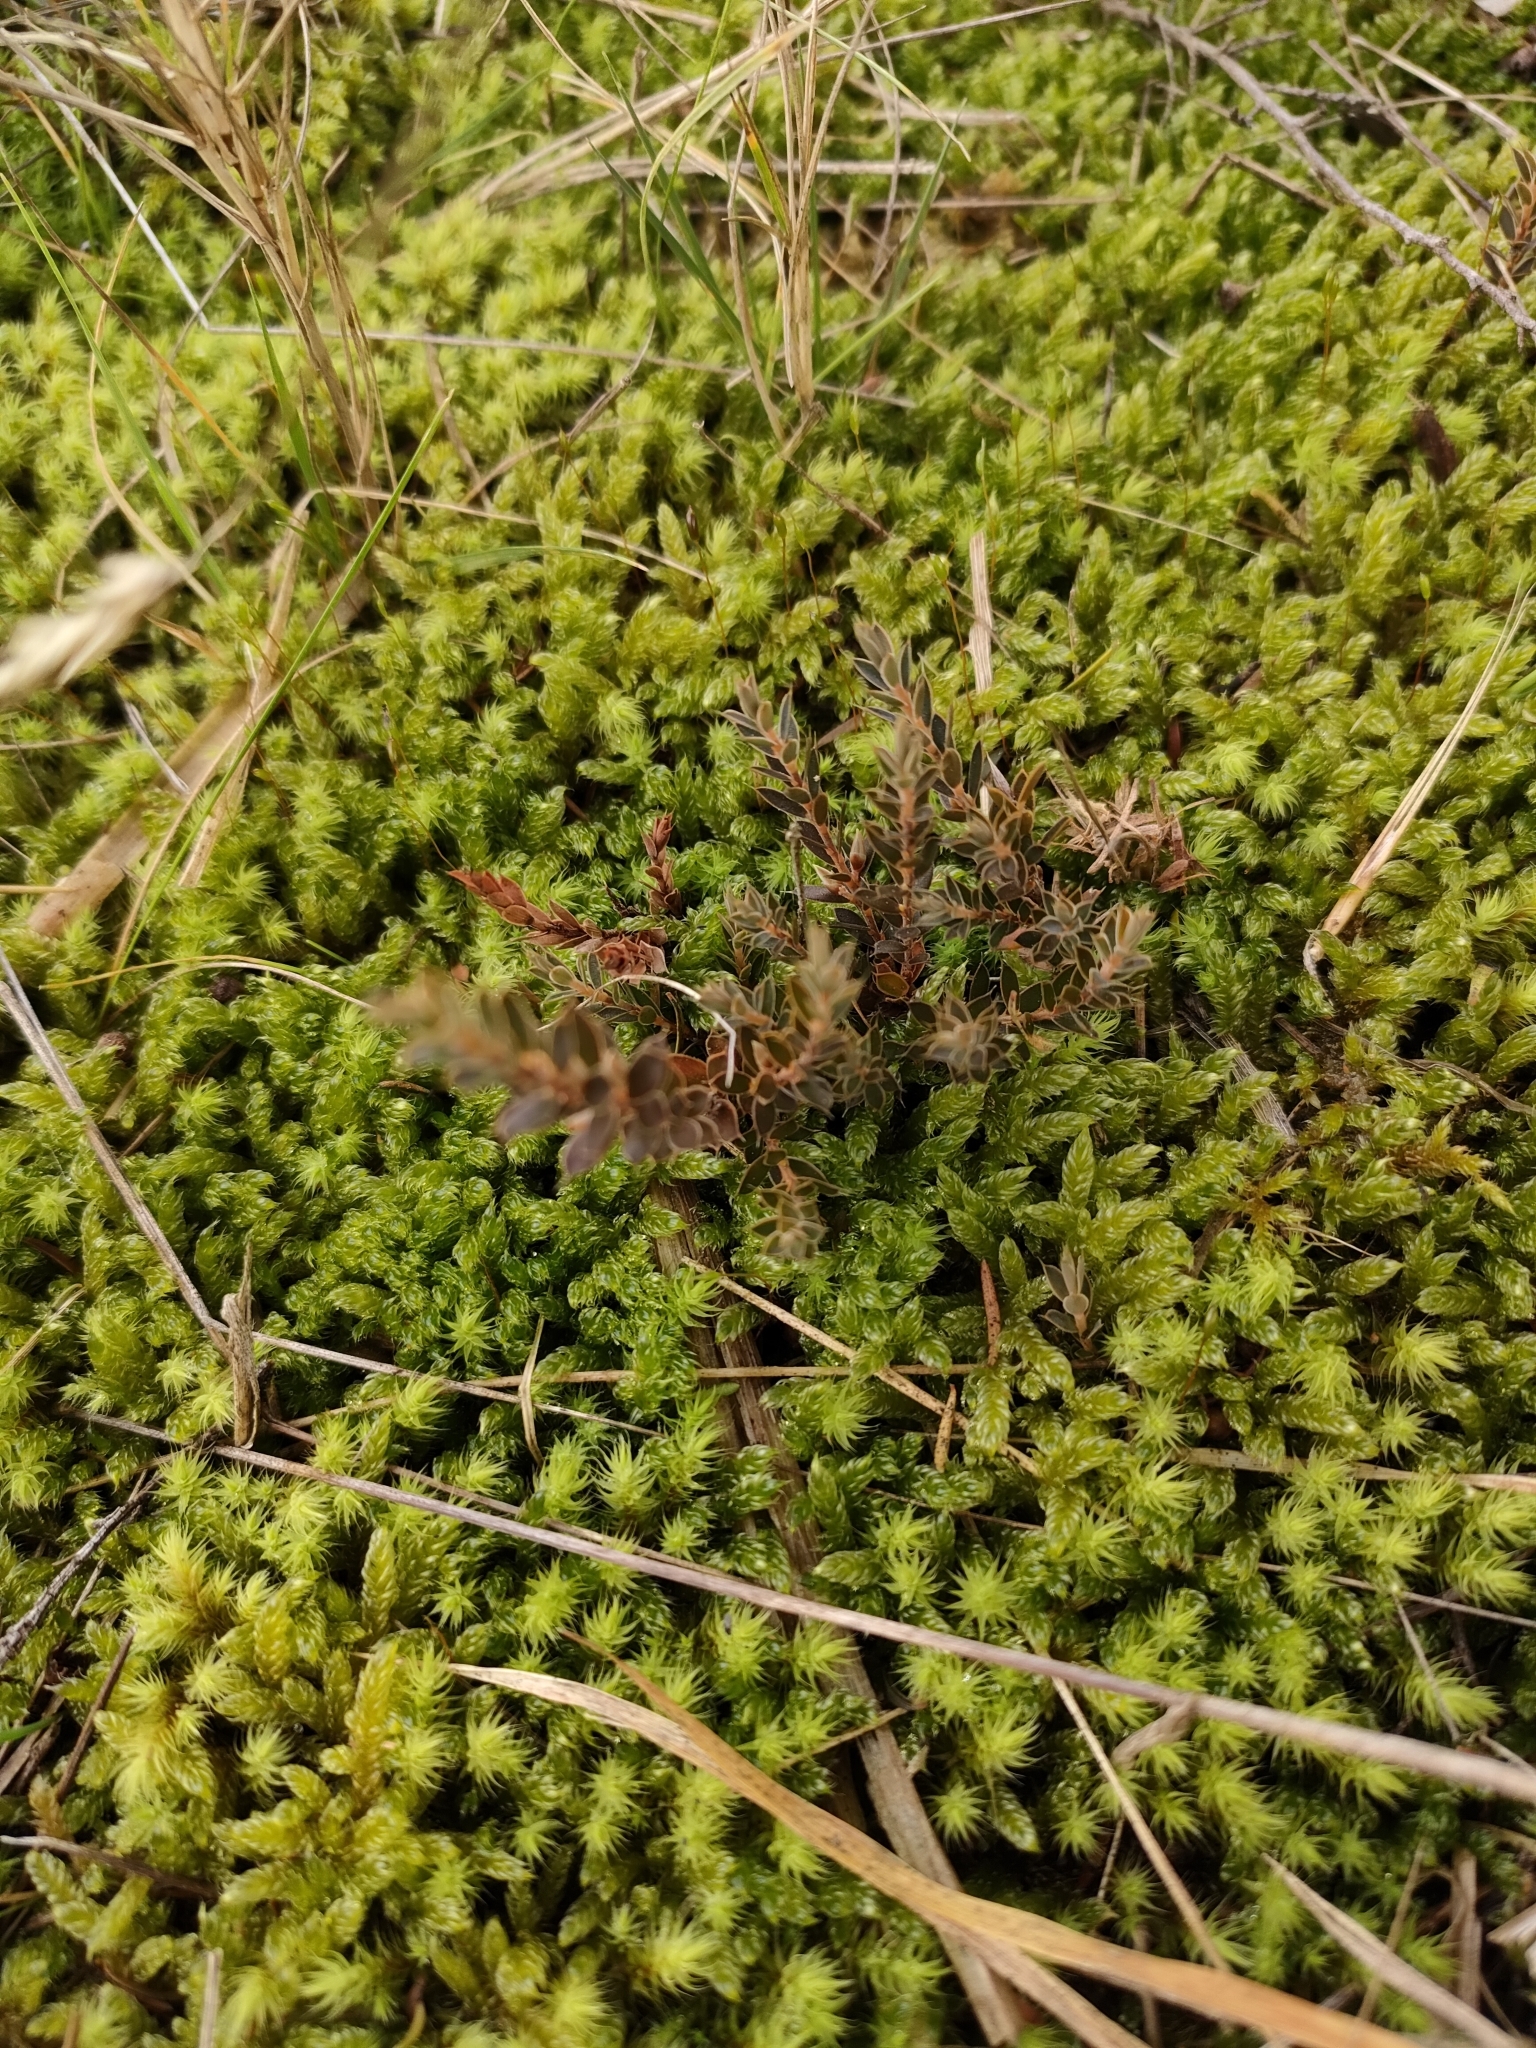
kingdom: Plantae
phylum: Tracheophyta
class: Magnoliopsida
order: Ericales
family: Ericaceae
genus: Styphelia
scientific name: Styphelia nesophila
